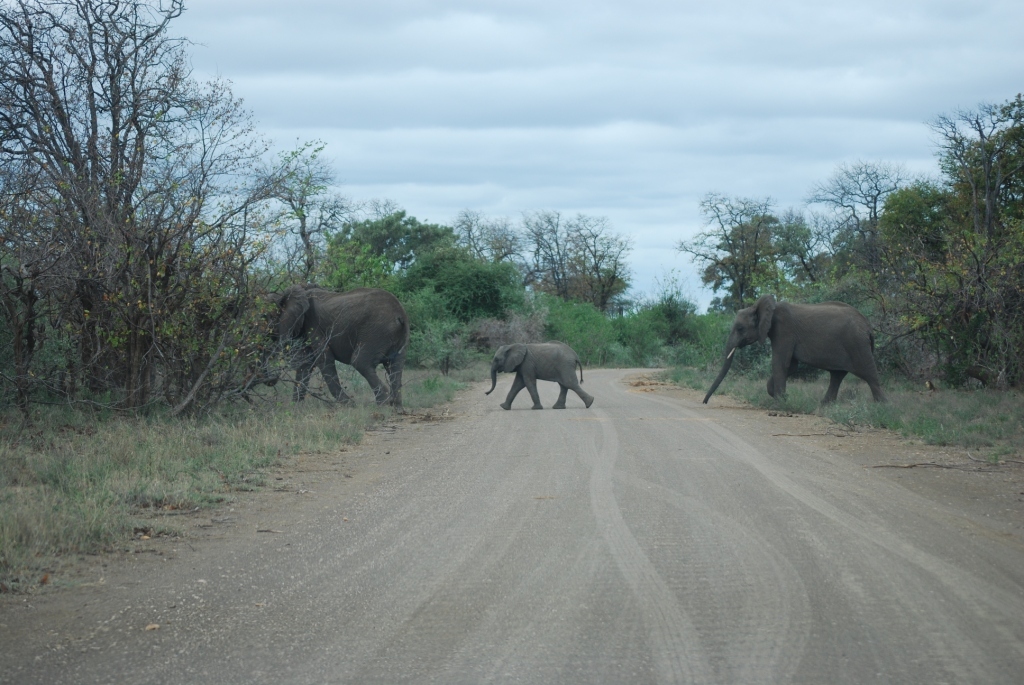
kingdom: Animalia
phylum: Chordata
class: Mammalia
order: Proboscidea
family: Elephantidae
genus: Loxodonta
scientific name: Loxodonta africana
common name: African elephant
